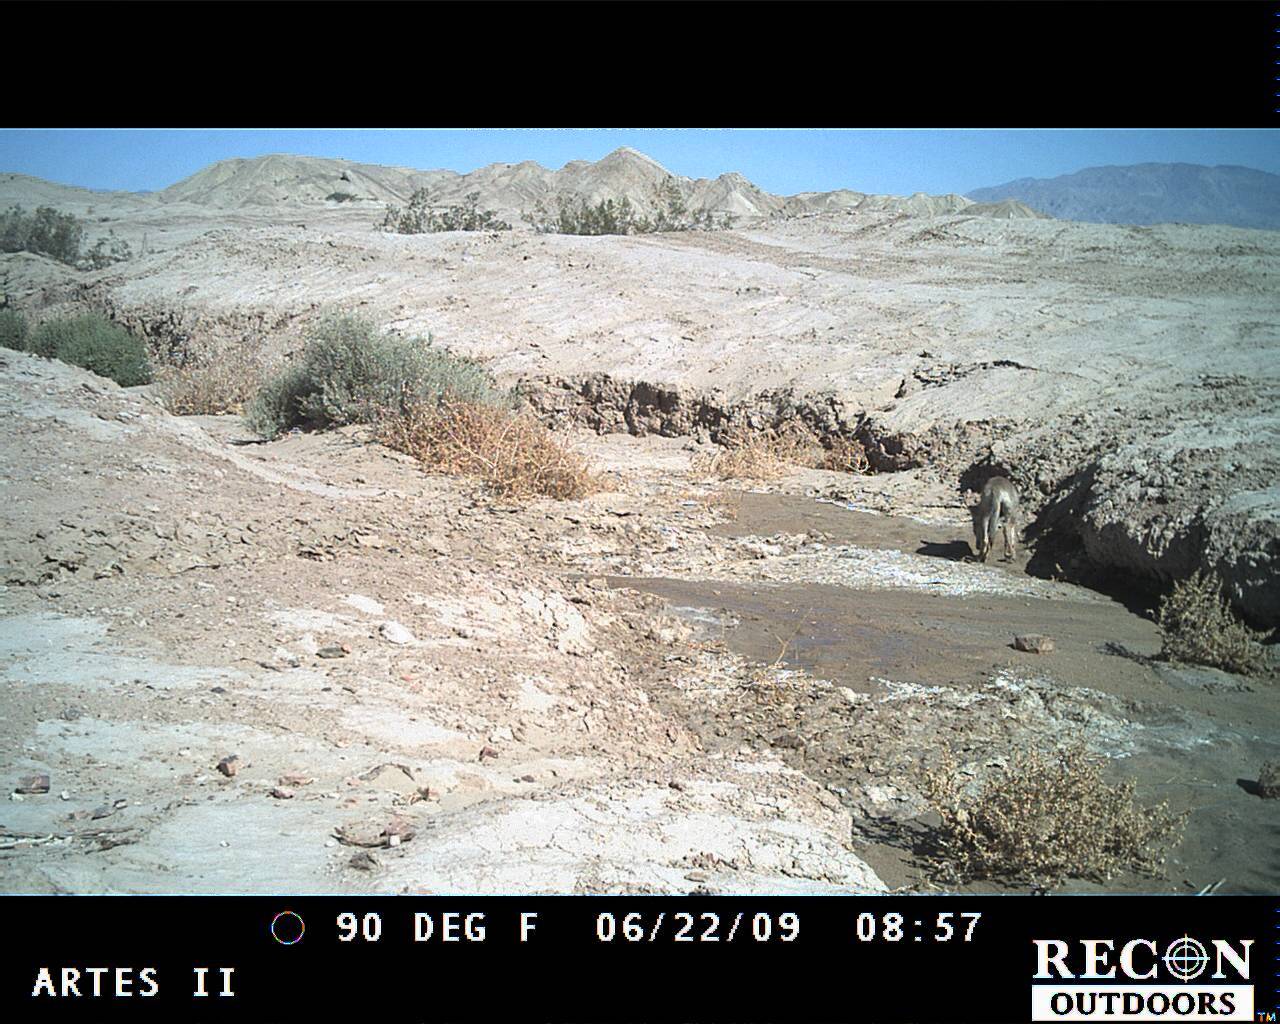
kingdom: Animalia
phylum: Chordata
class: Mammalia
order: Carnivora
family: Canidae
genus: Canis
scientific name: Canis latrans
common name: Coyote
